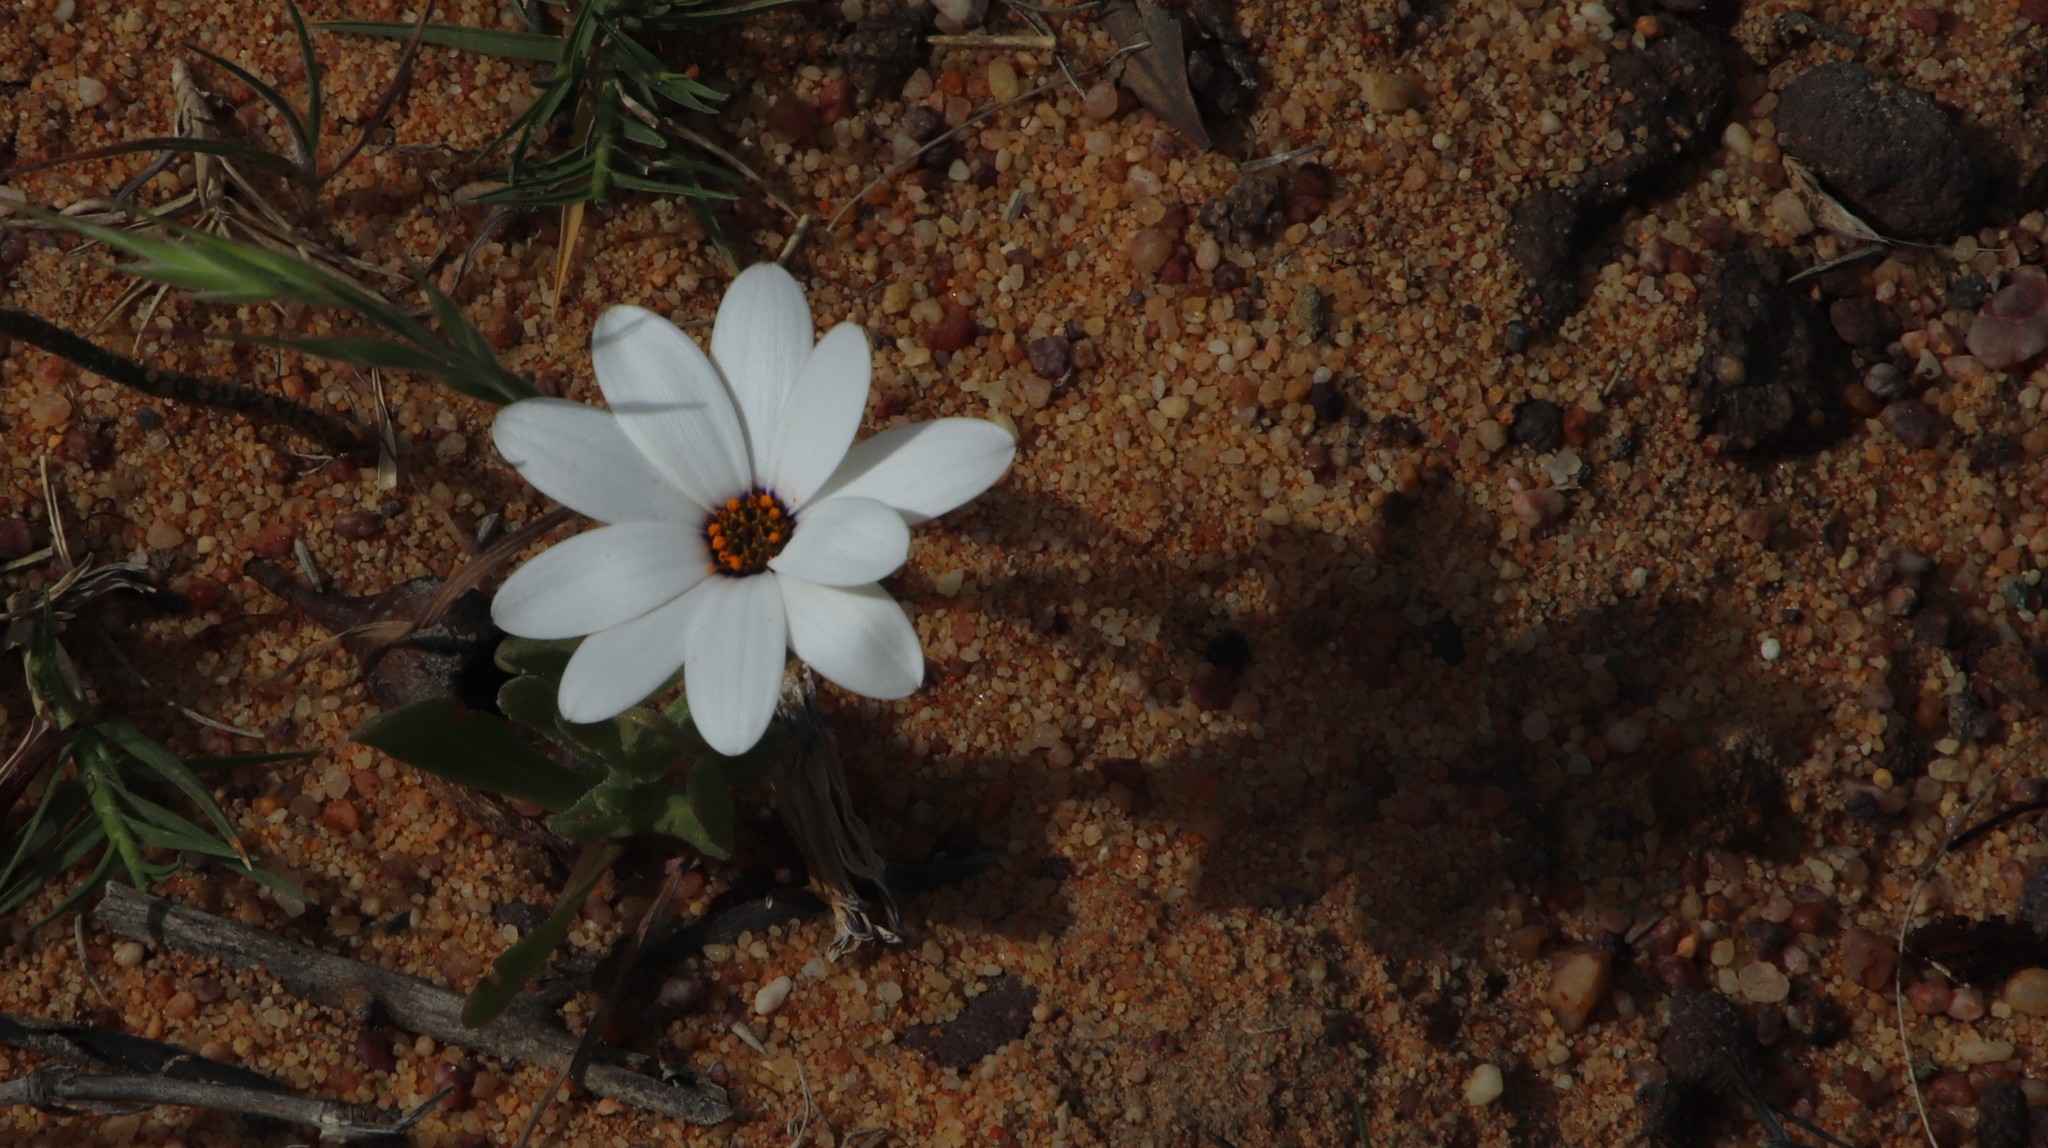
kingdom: Plantae
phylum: Tracheophyta
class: Magnoliopsida
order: Asterales
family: Asteraceae
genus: Dimorphotheca
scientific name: Dimorphotheca pluvialis
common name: Weather prophet
